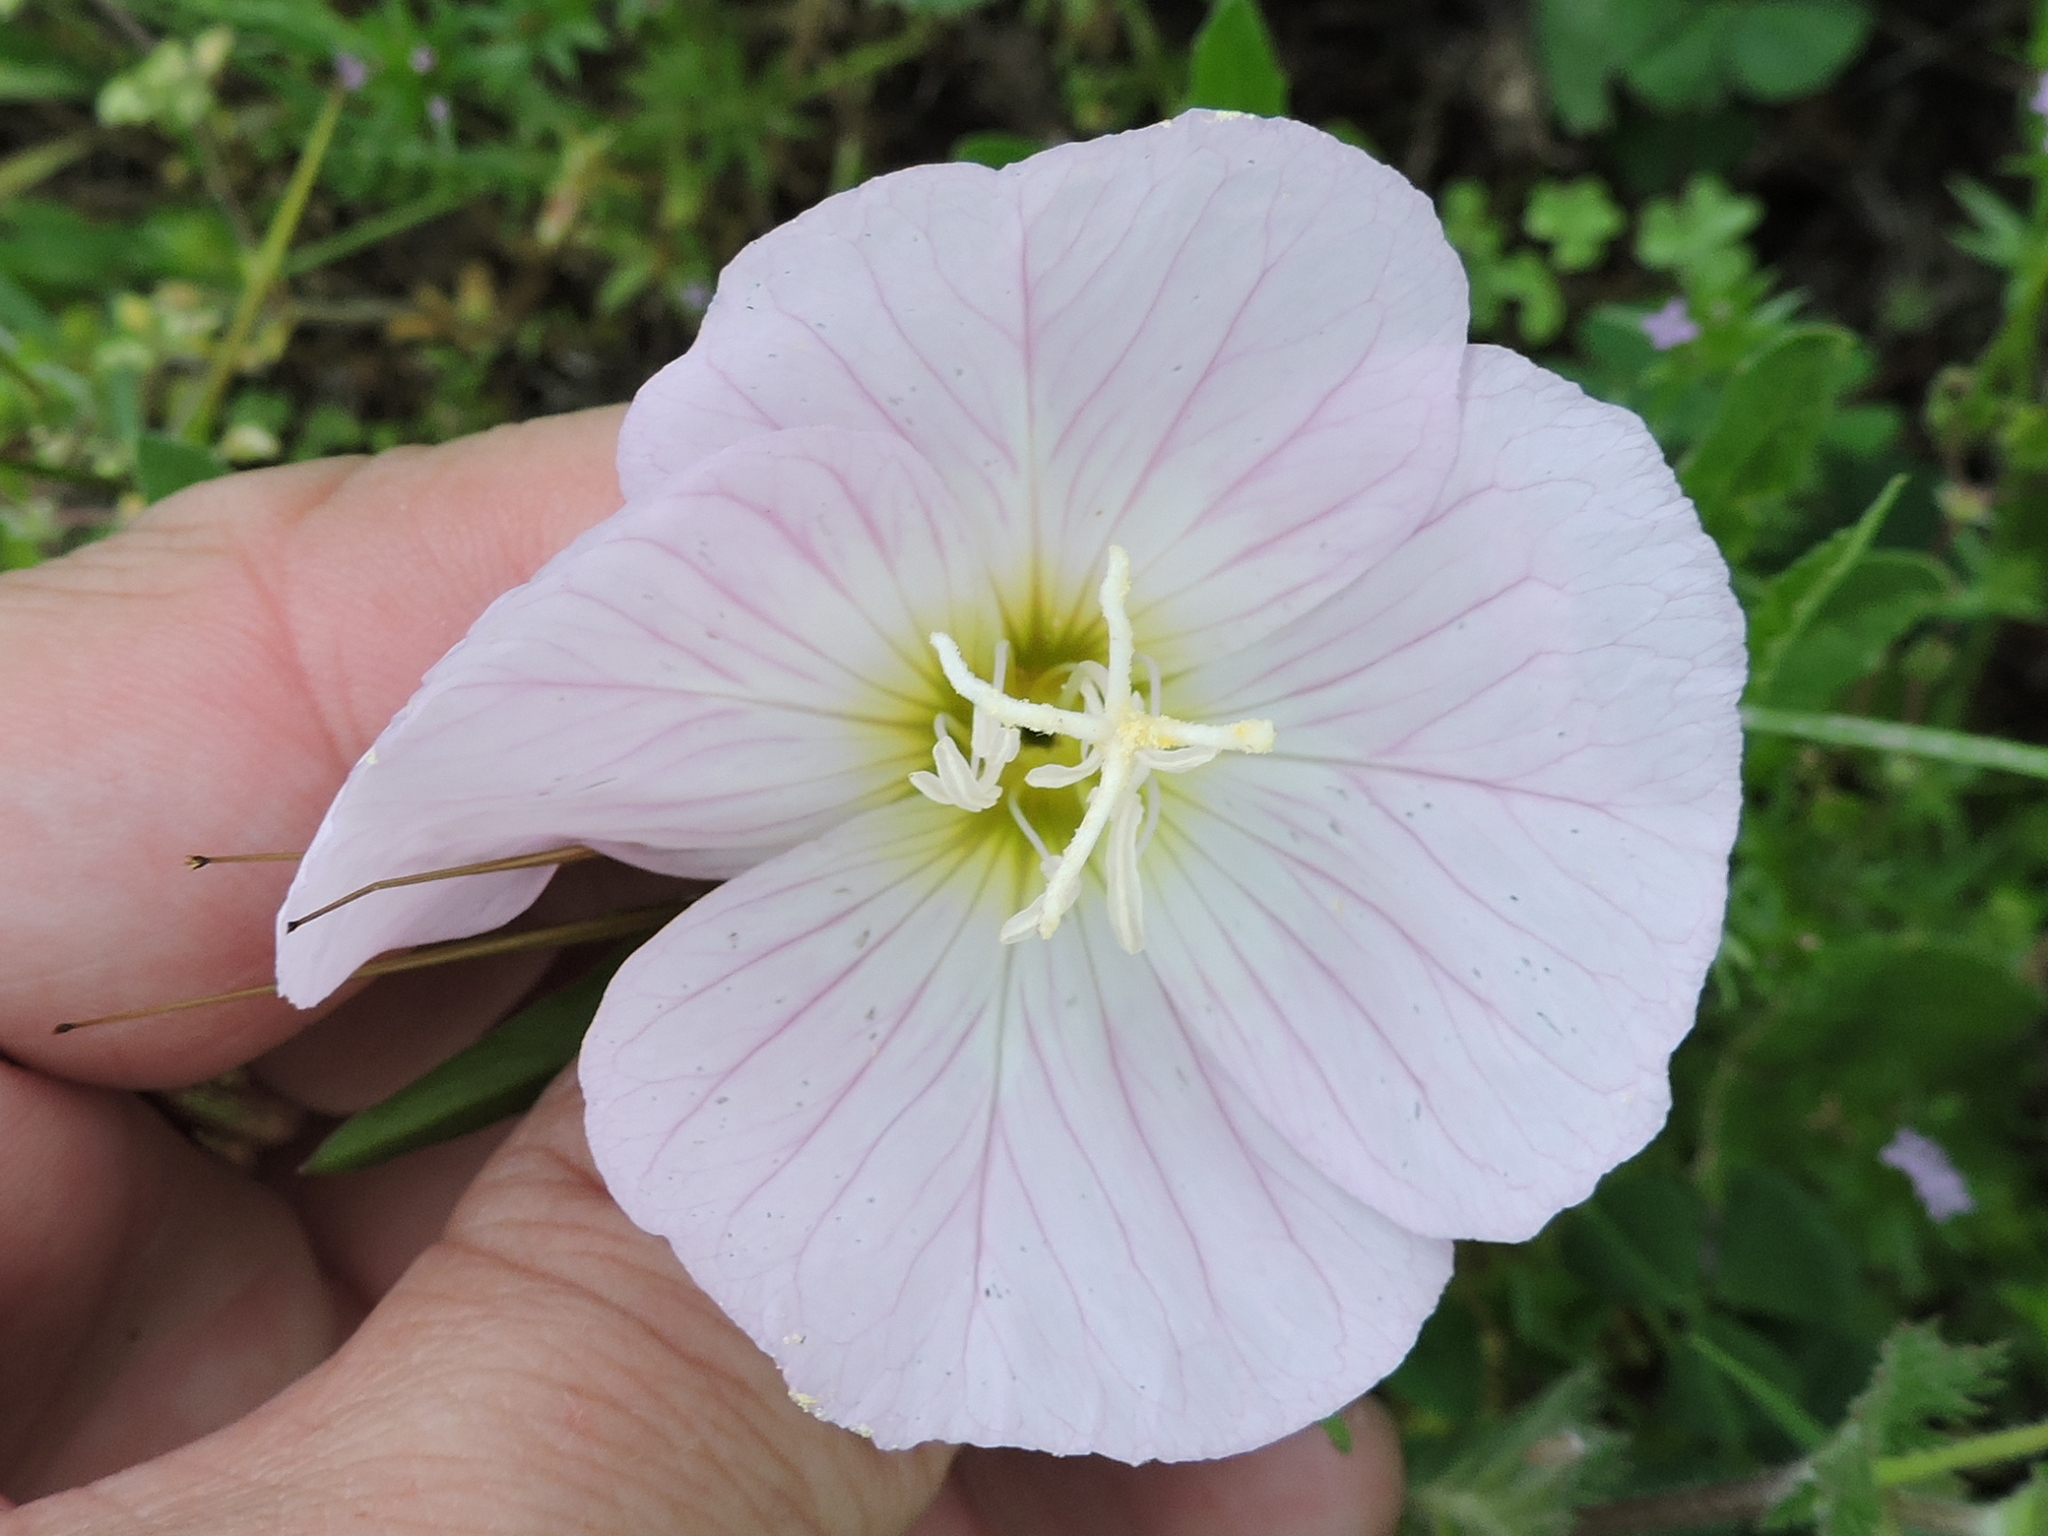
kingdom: Plantae
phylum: Tracheophyta
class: Magnoliopsida
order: Myrtales
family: Onagraceae
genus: Oenothera
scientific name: Oenothera speciosa
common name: White evening-primrose
